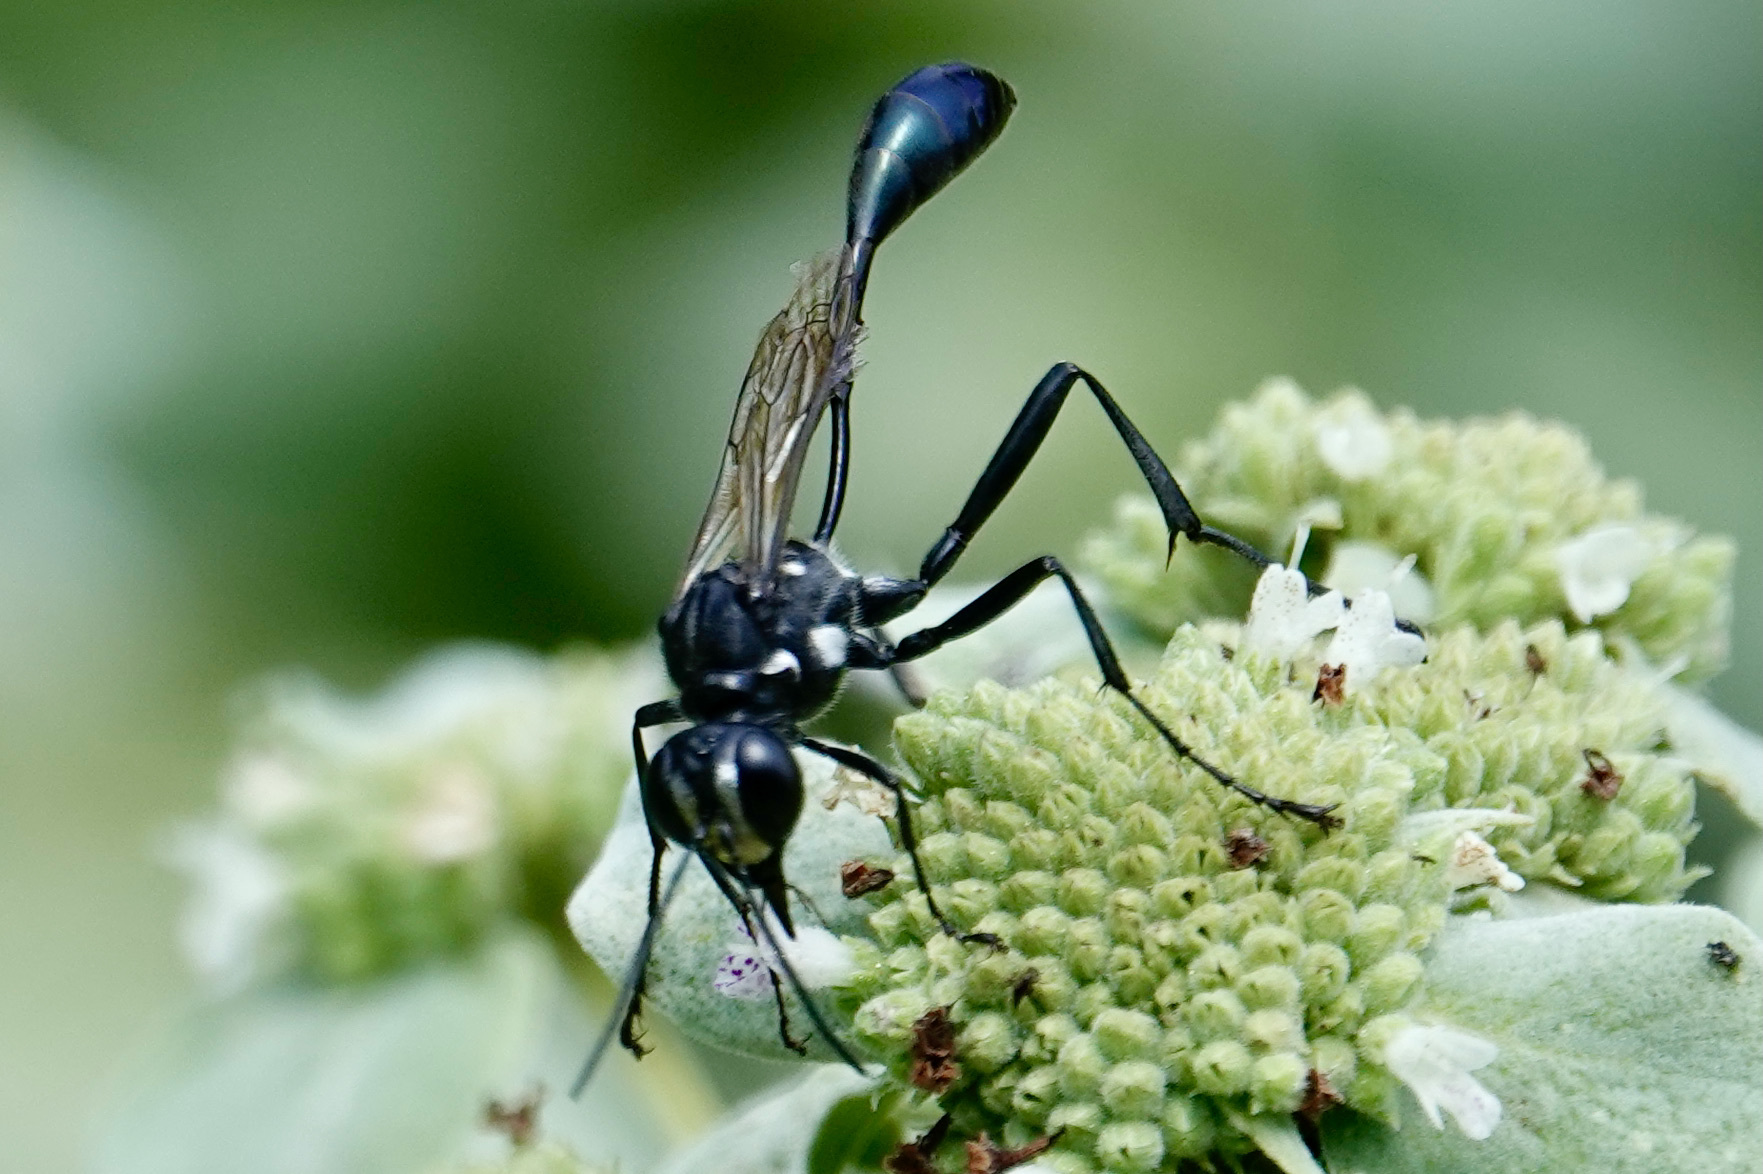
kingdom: Animalia
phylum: Arthropoda
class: Insecta
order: Hymenoptera
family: Sphecidae
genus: Eremnophila
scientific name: Eremnophila aureonotata
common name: Gold-marked thread-waisted wasp
